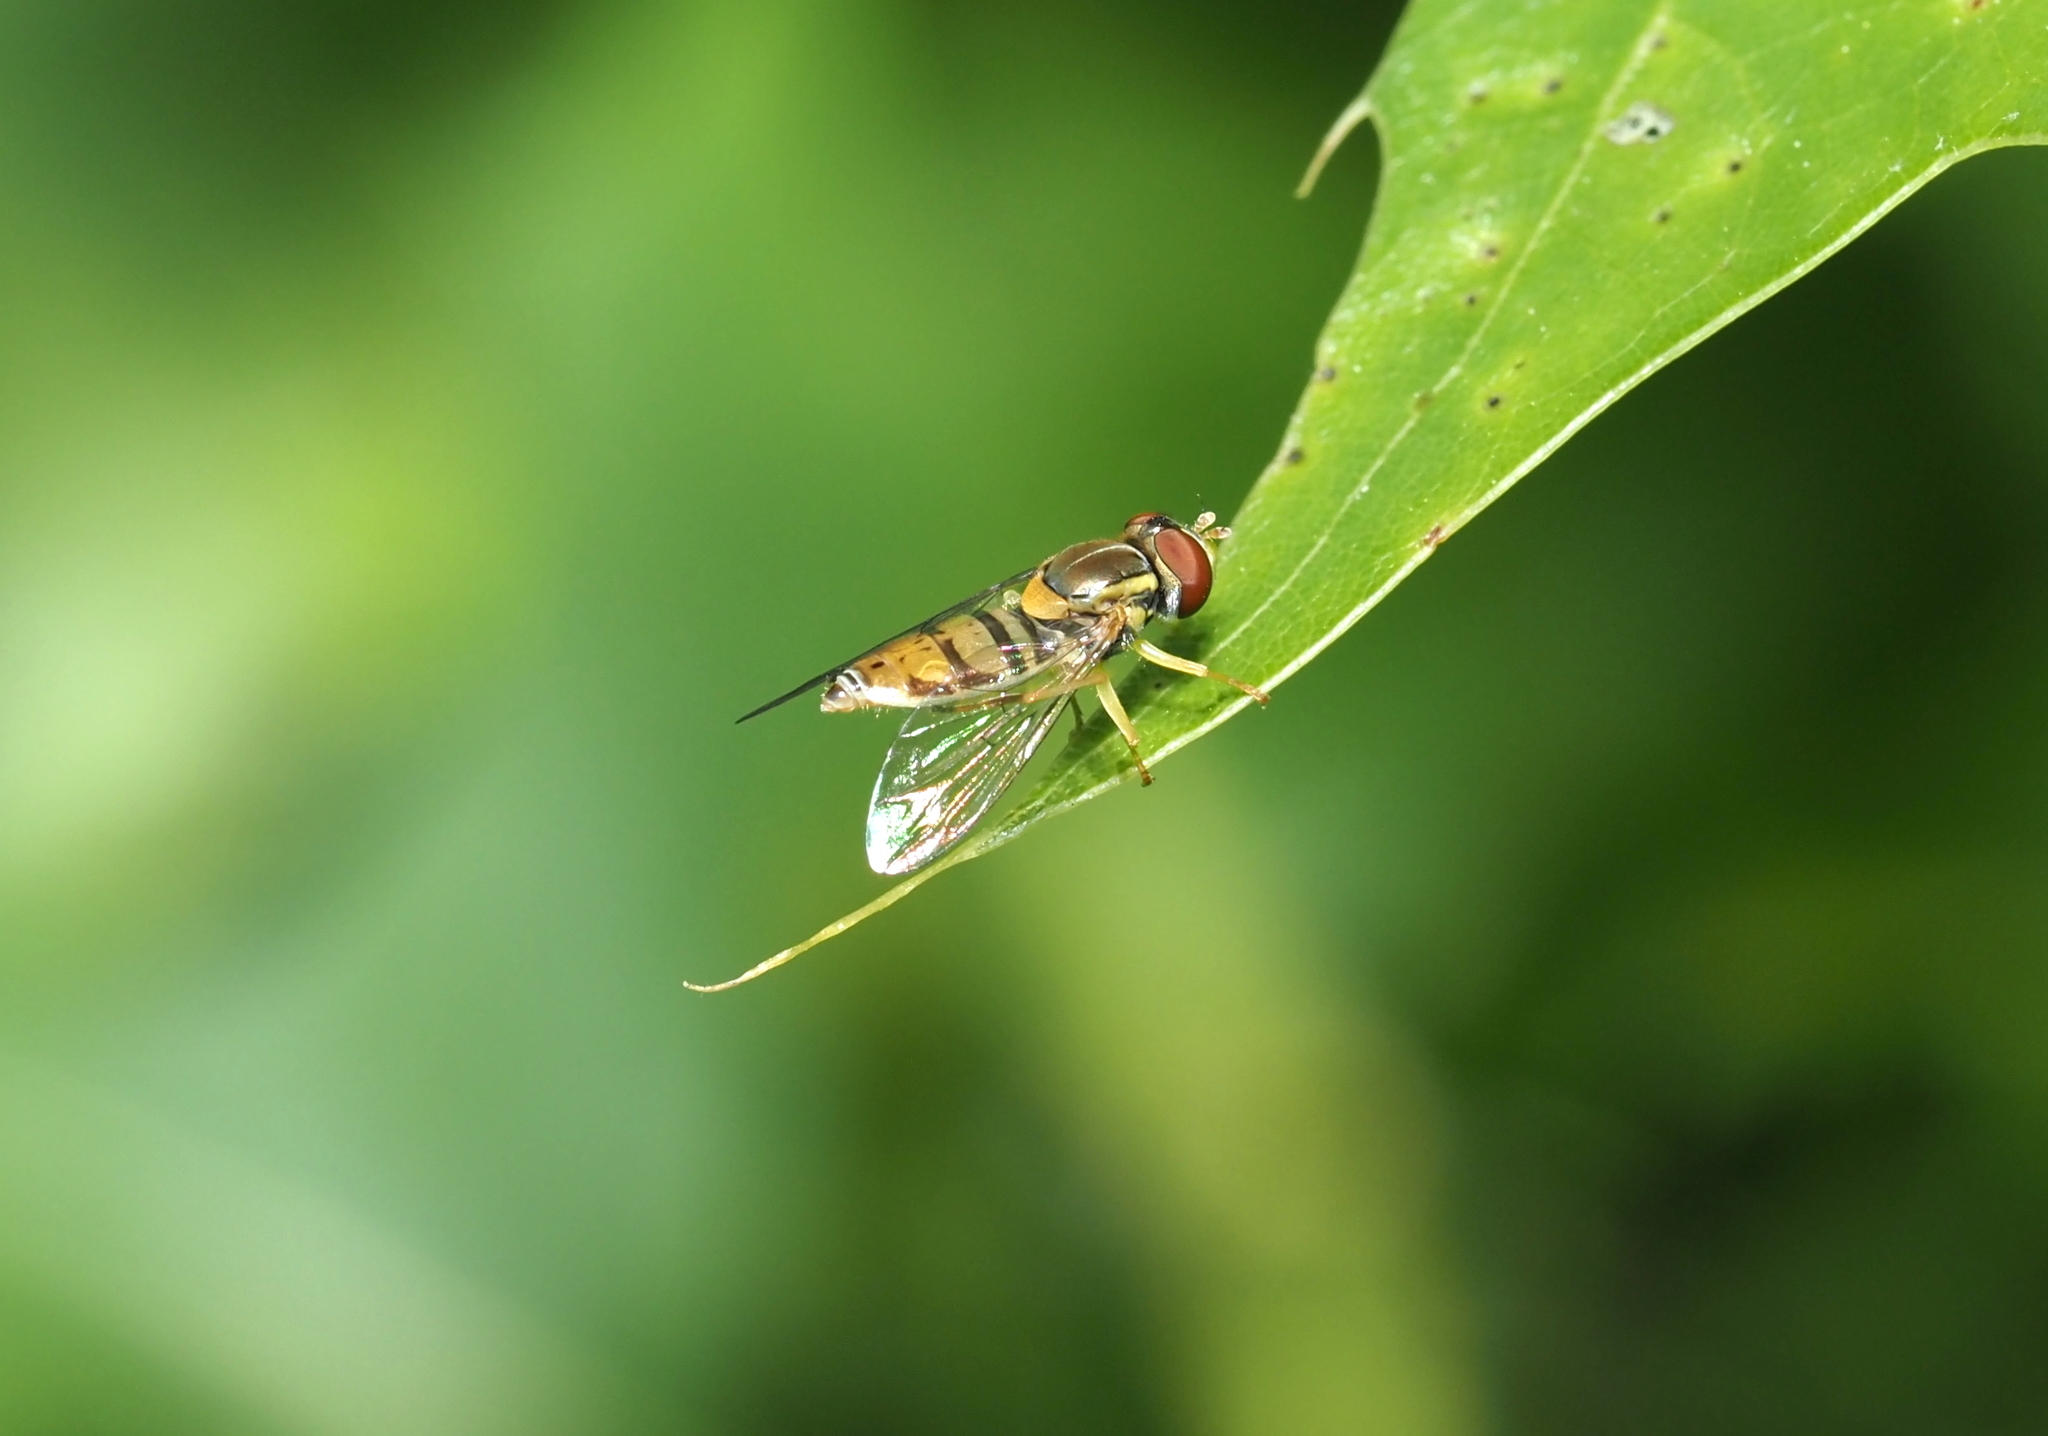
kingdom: Animalia
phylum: Arthropoda
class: Insecta
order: Diptera
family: Syrphidae
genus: Toxomerus
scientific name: Toxomerus marginatus
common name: Syrphid fly
